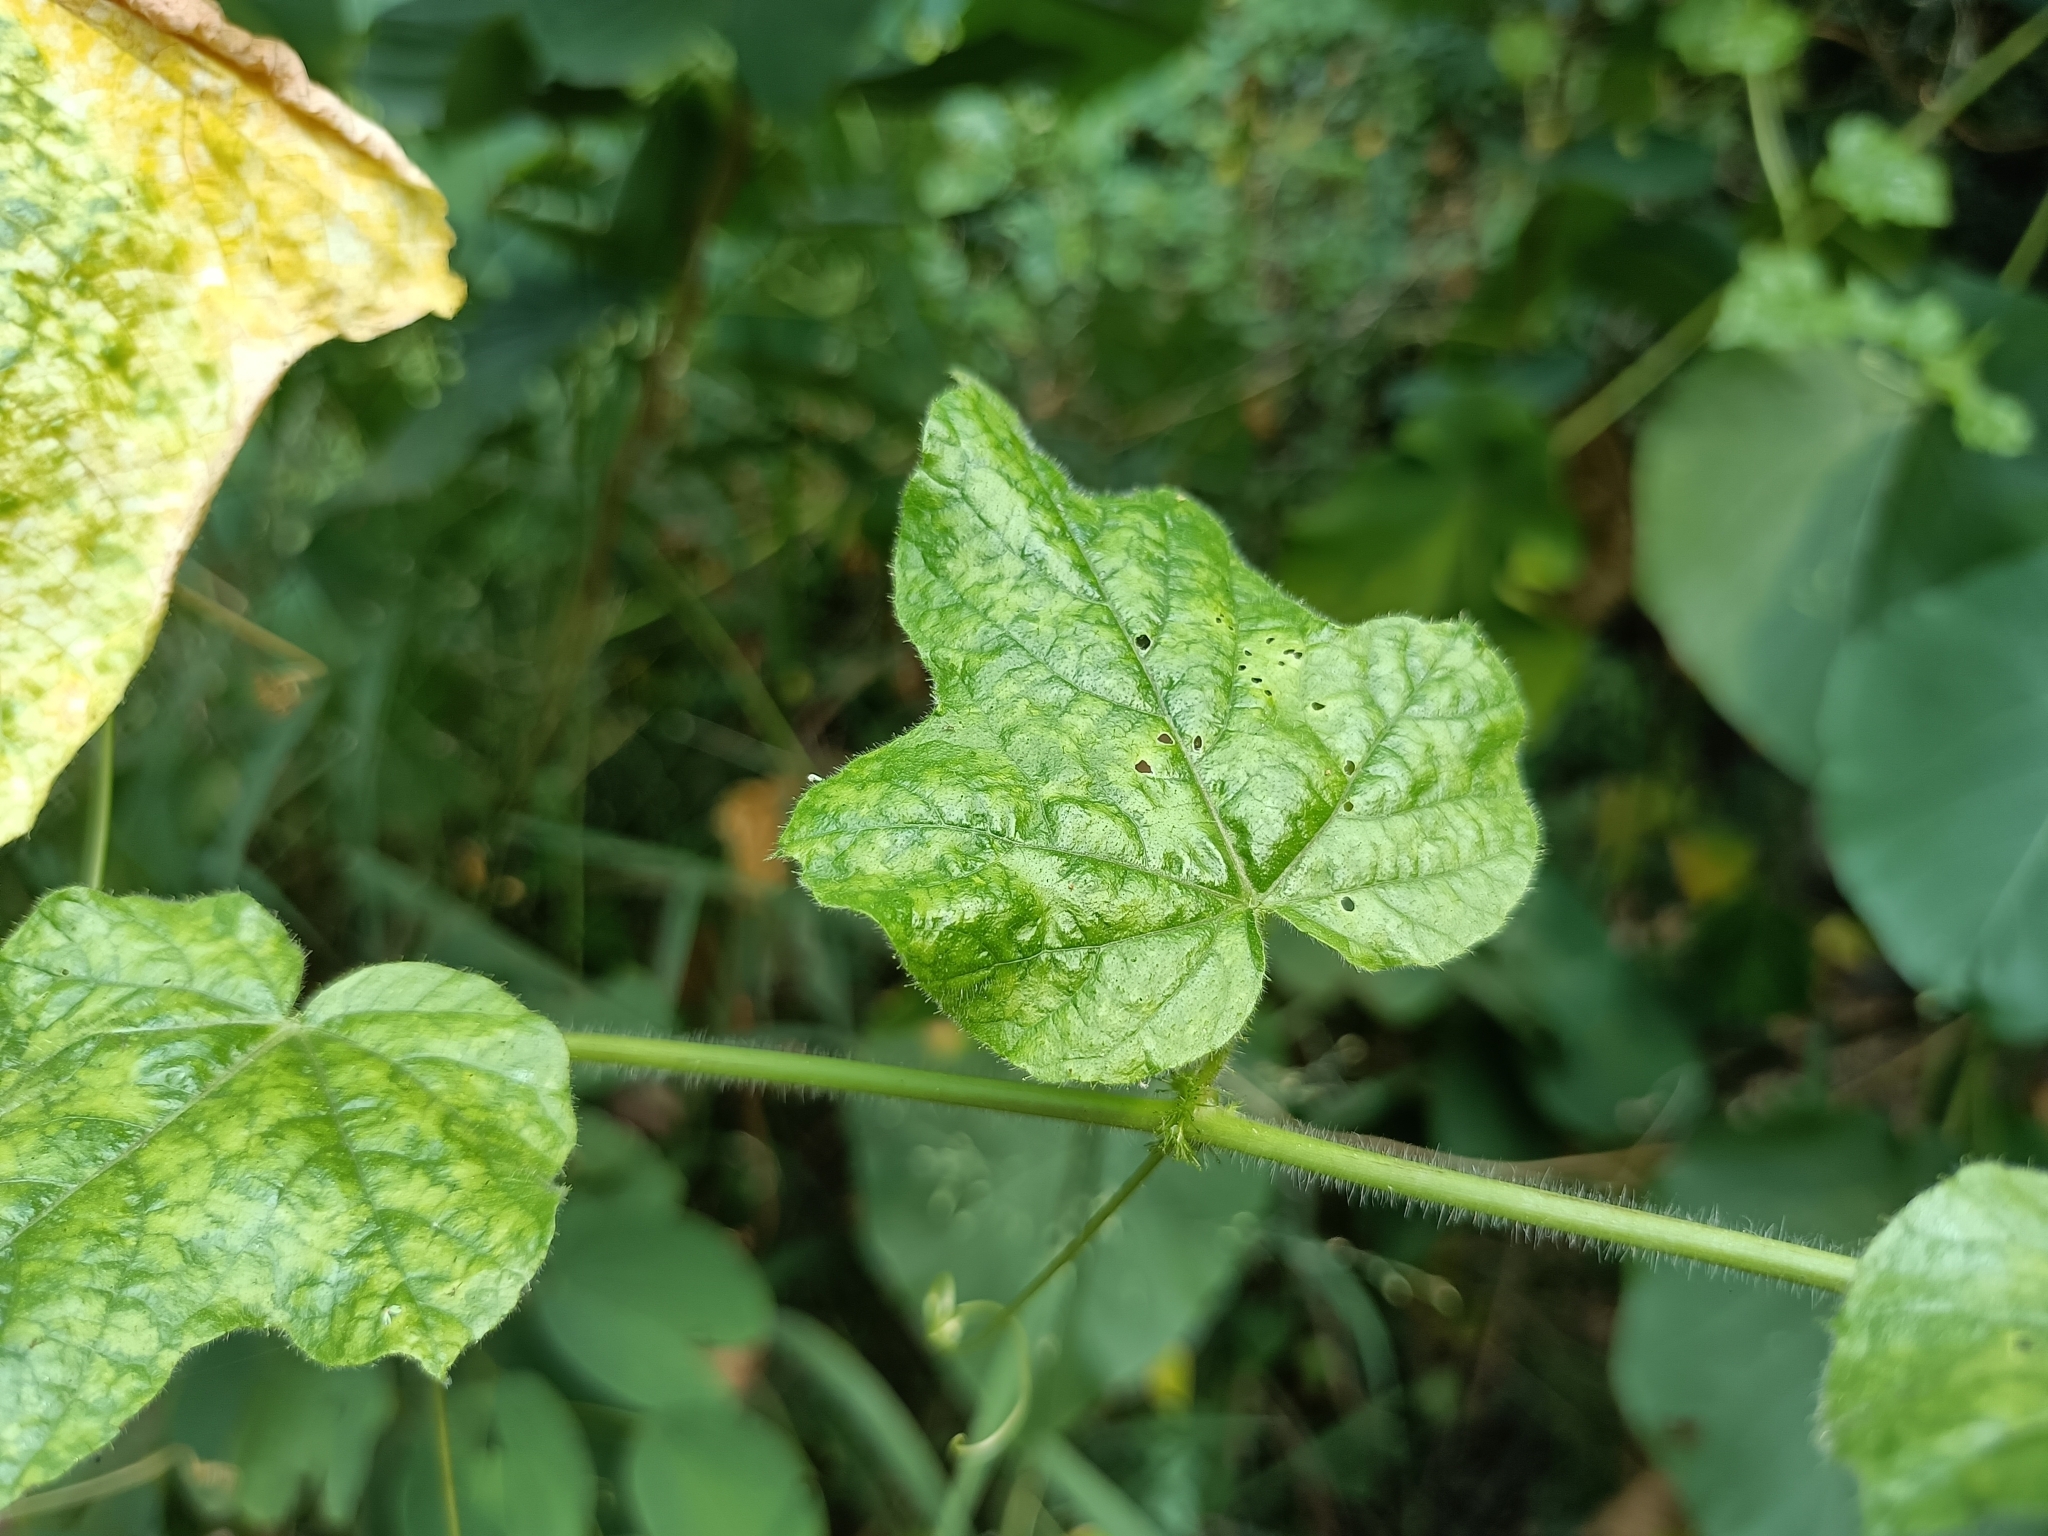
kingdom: Plantae
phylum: Tracheophyta
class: Magnoliopsida
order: Malpighiales
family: Passifloraceae
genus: Passiflora
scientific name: Passiflora vesicaria
